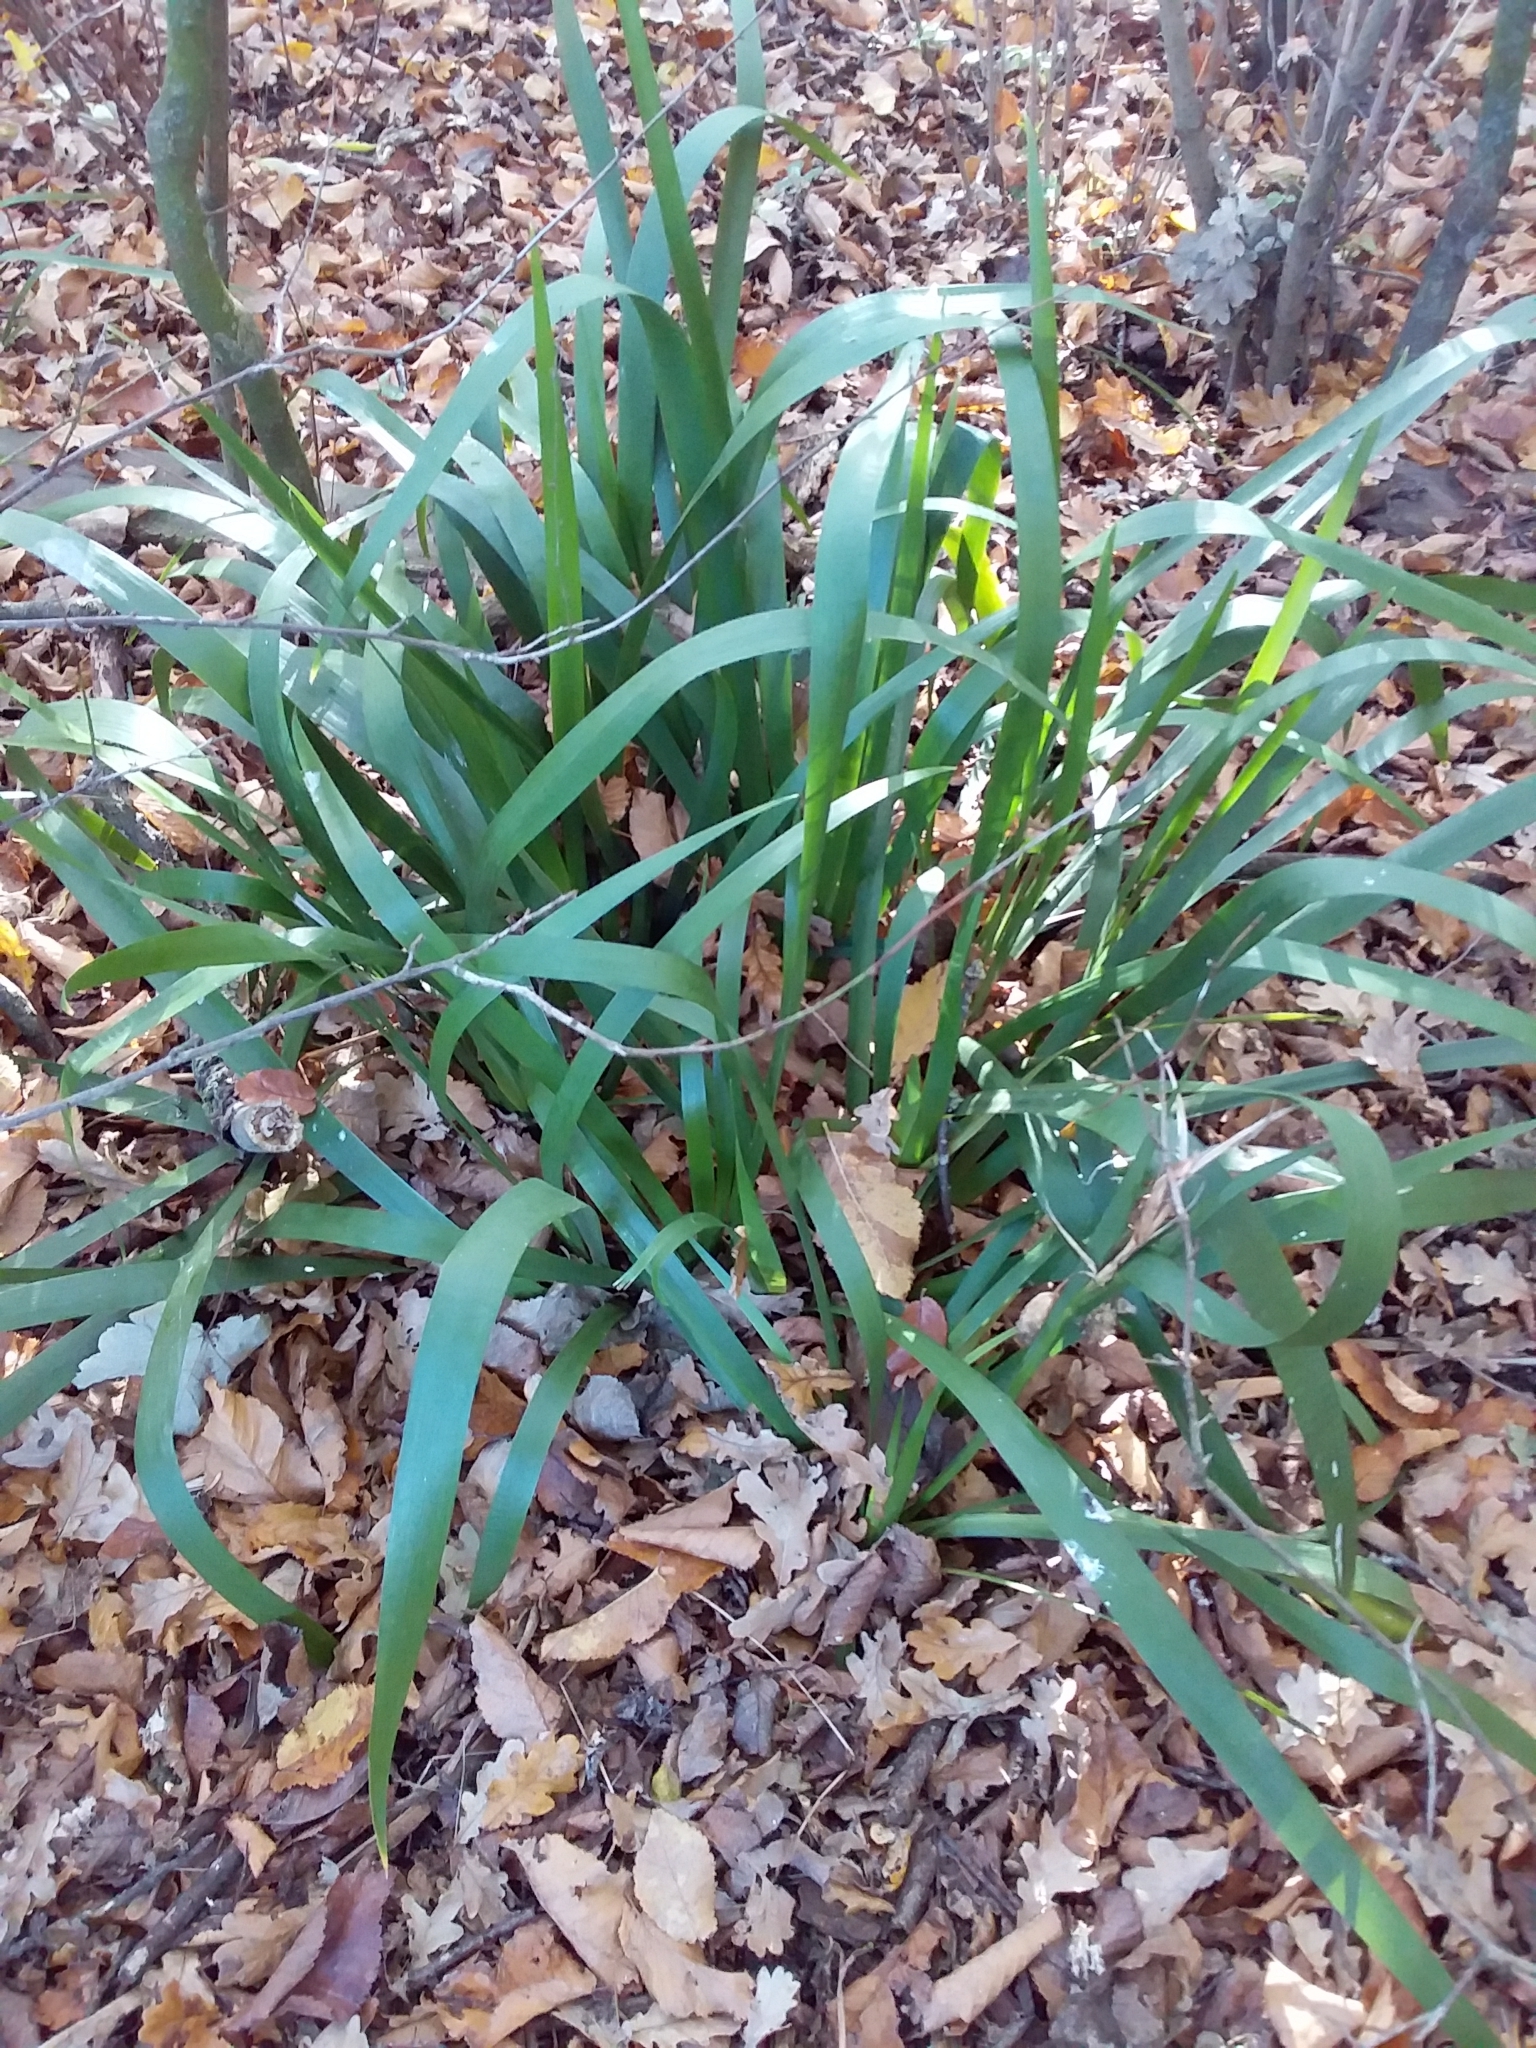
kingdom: Plantae
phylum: Tracheophyta
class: Liliopsida
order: Asparagales
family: Iridaceae
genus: Iris
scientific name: Iris foetidissima
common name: Stinking iris
